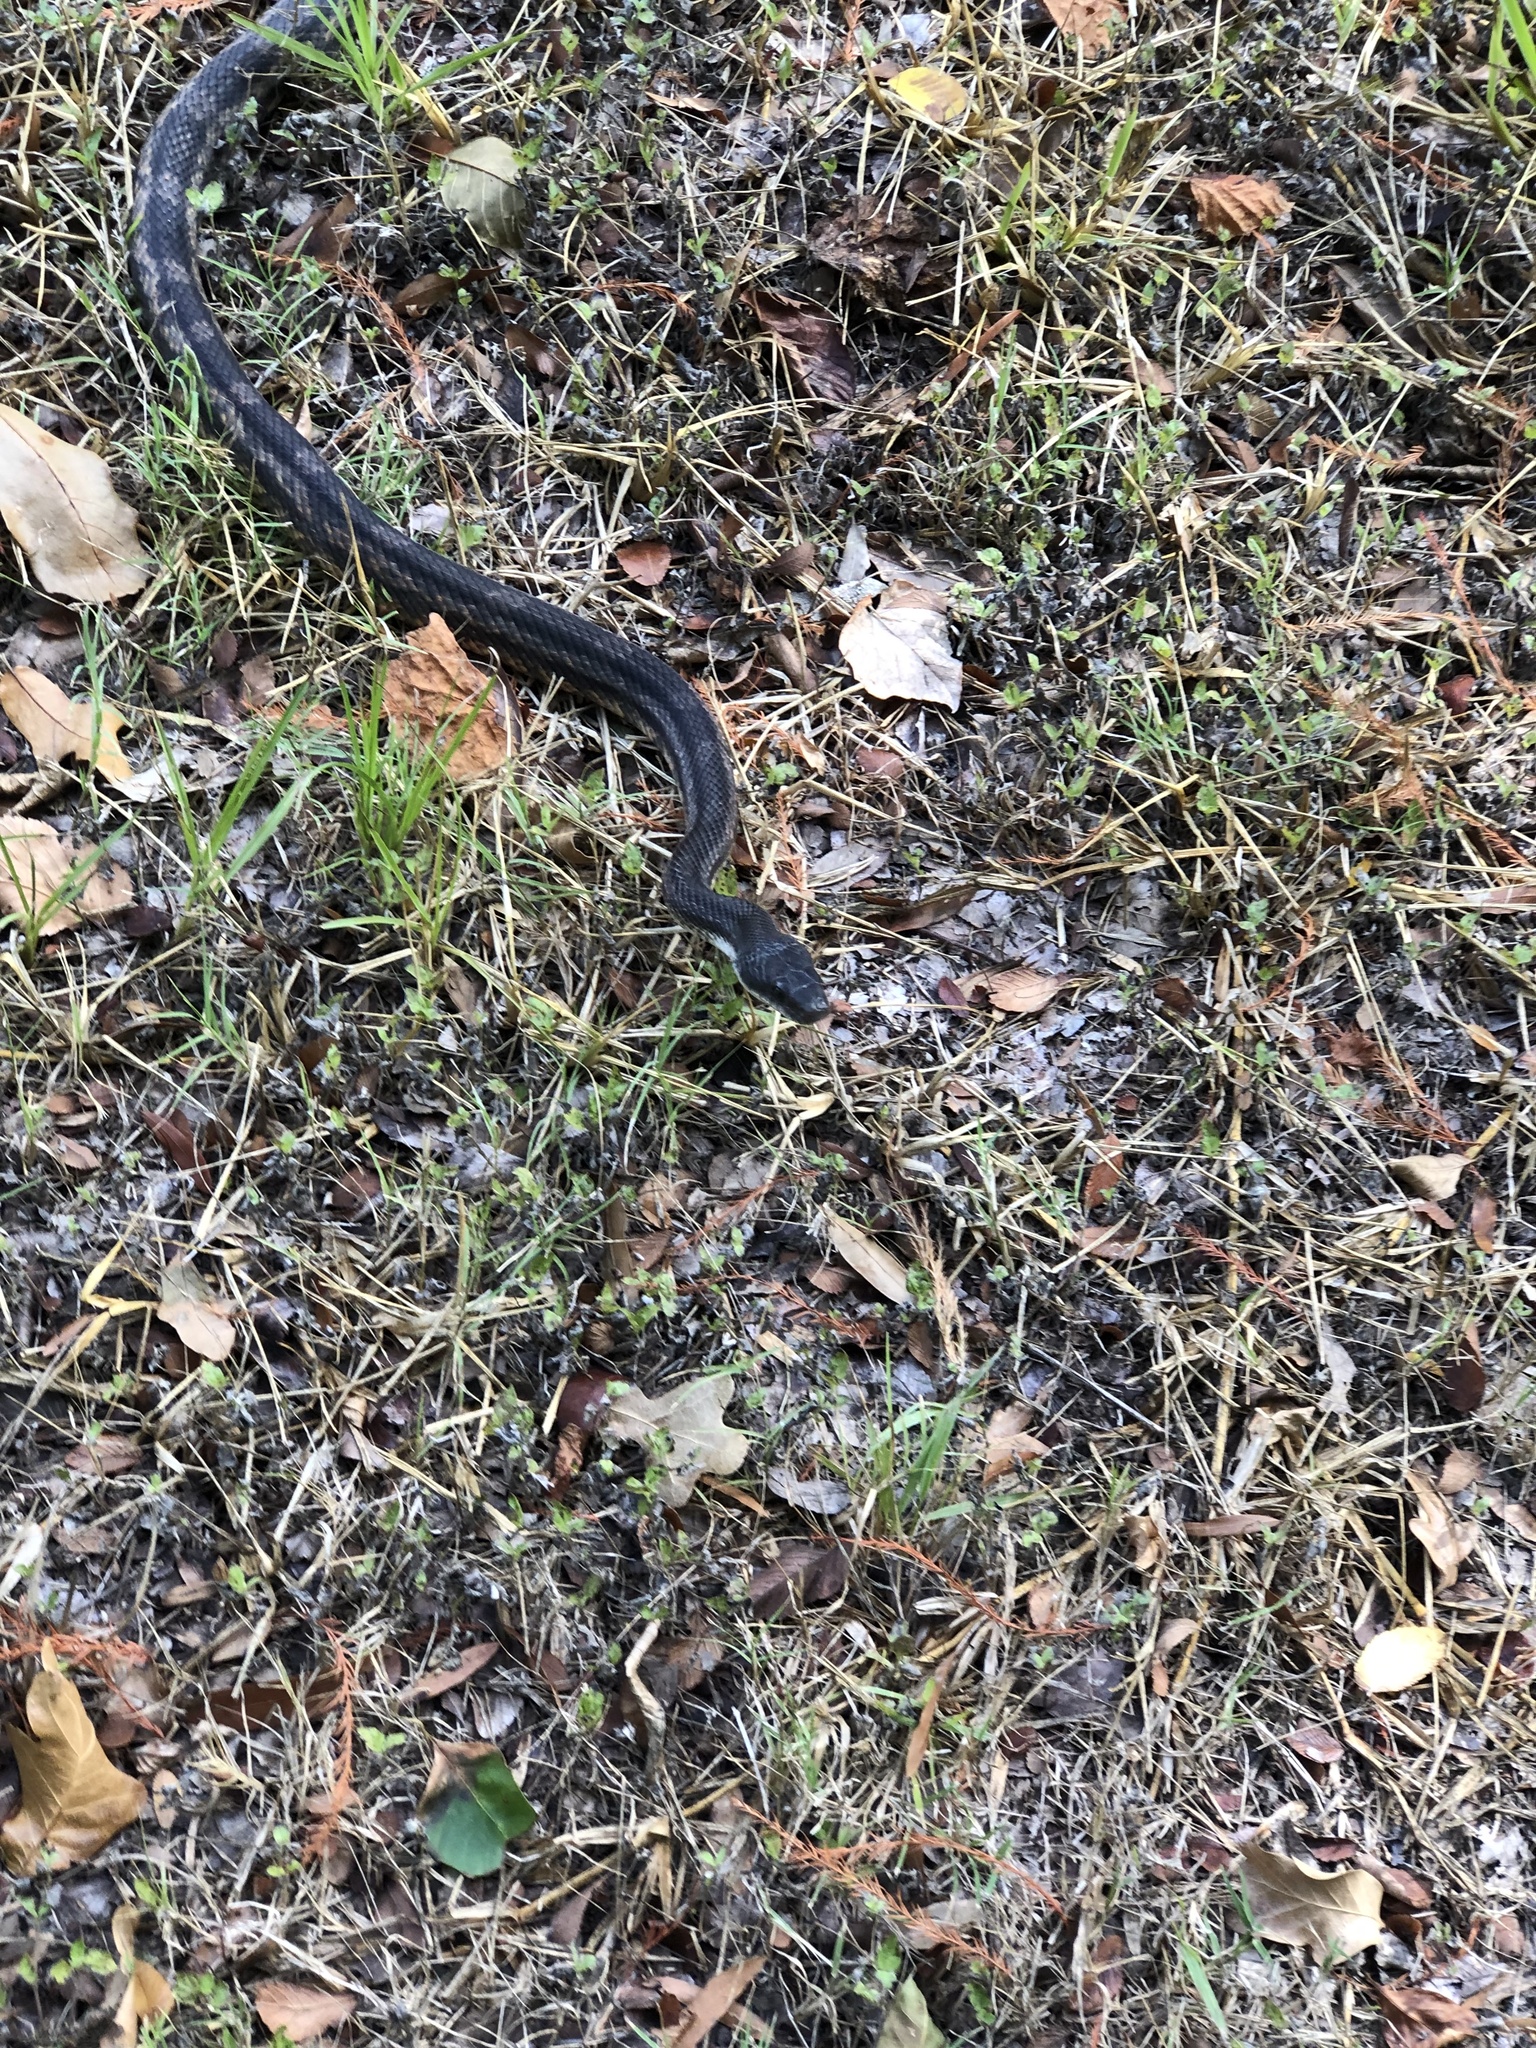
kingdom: Animalia
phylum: Chordata
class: Squamata
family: Colubridae
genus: Pantherophis
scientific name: Pantherophis obsoletus
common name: Black rat snake
